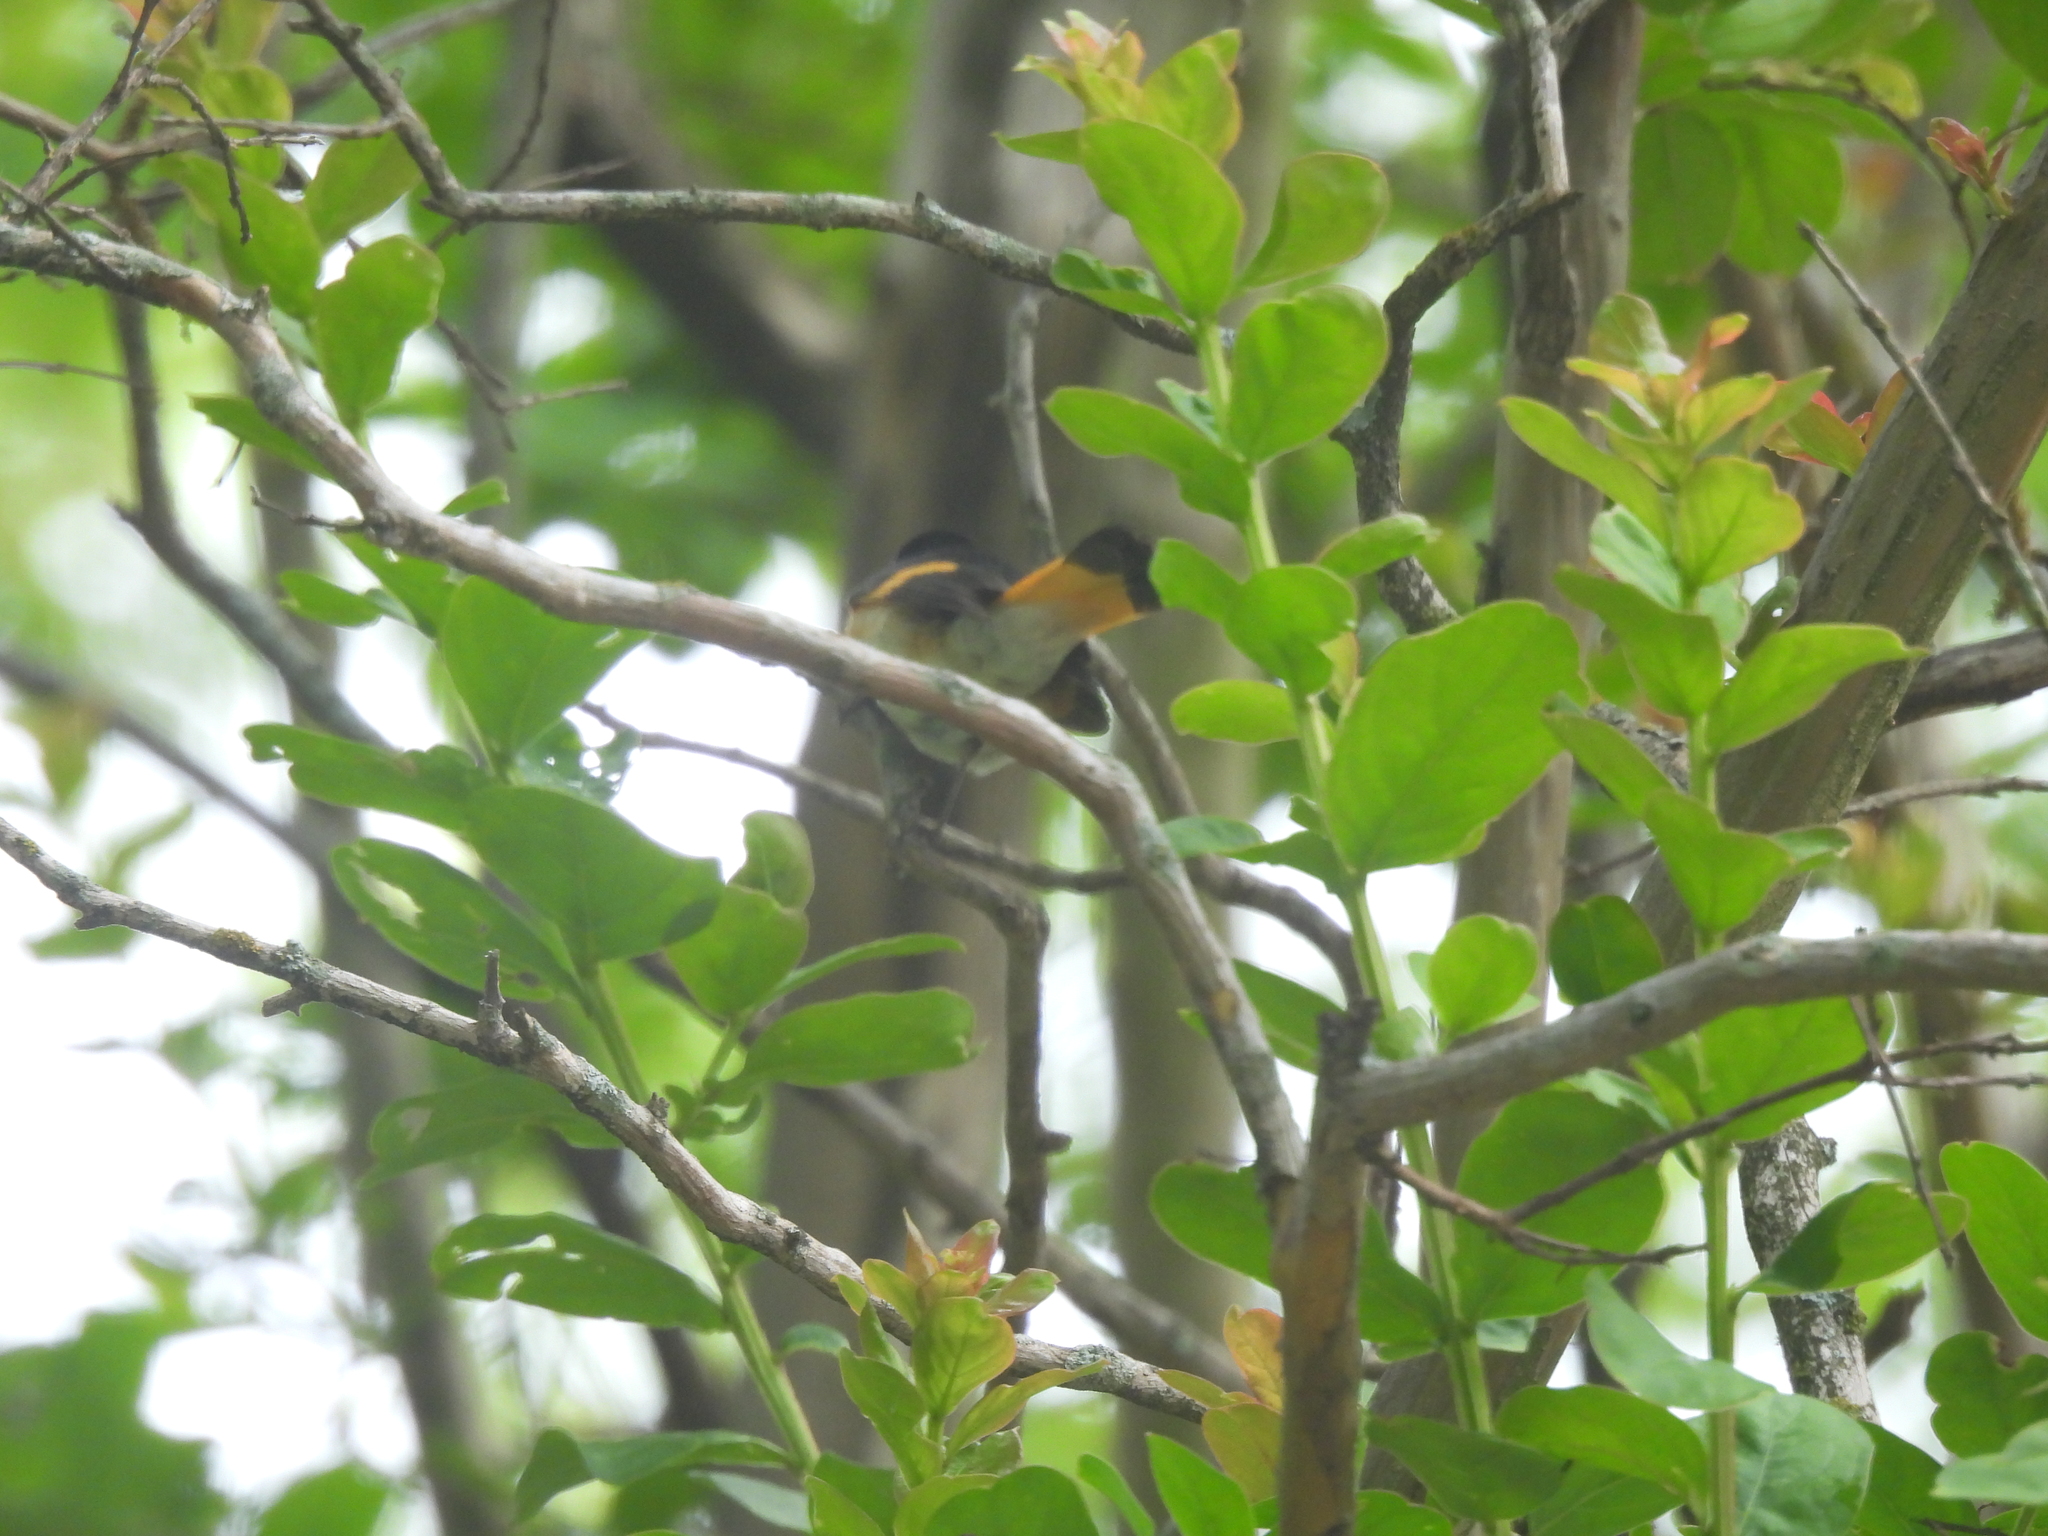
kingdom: Animalia
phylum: Chordata
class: Aves
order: Passeriformes
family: Parulidae
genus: Setophaga
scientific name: Setophaga ruticilla
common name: American redstart
